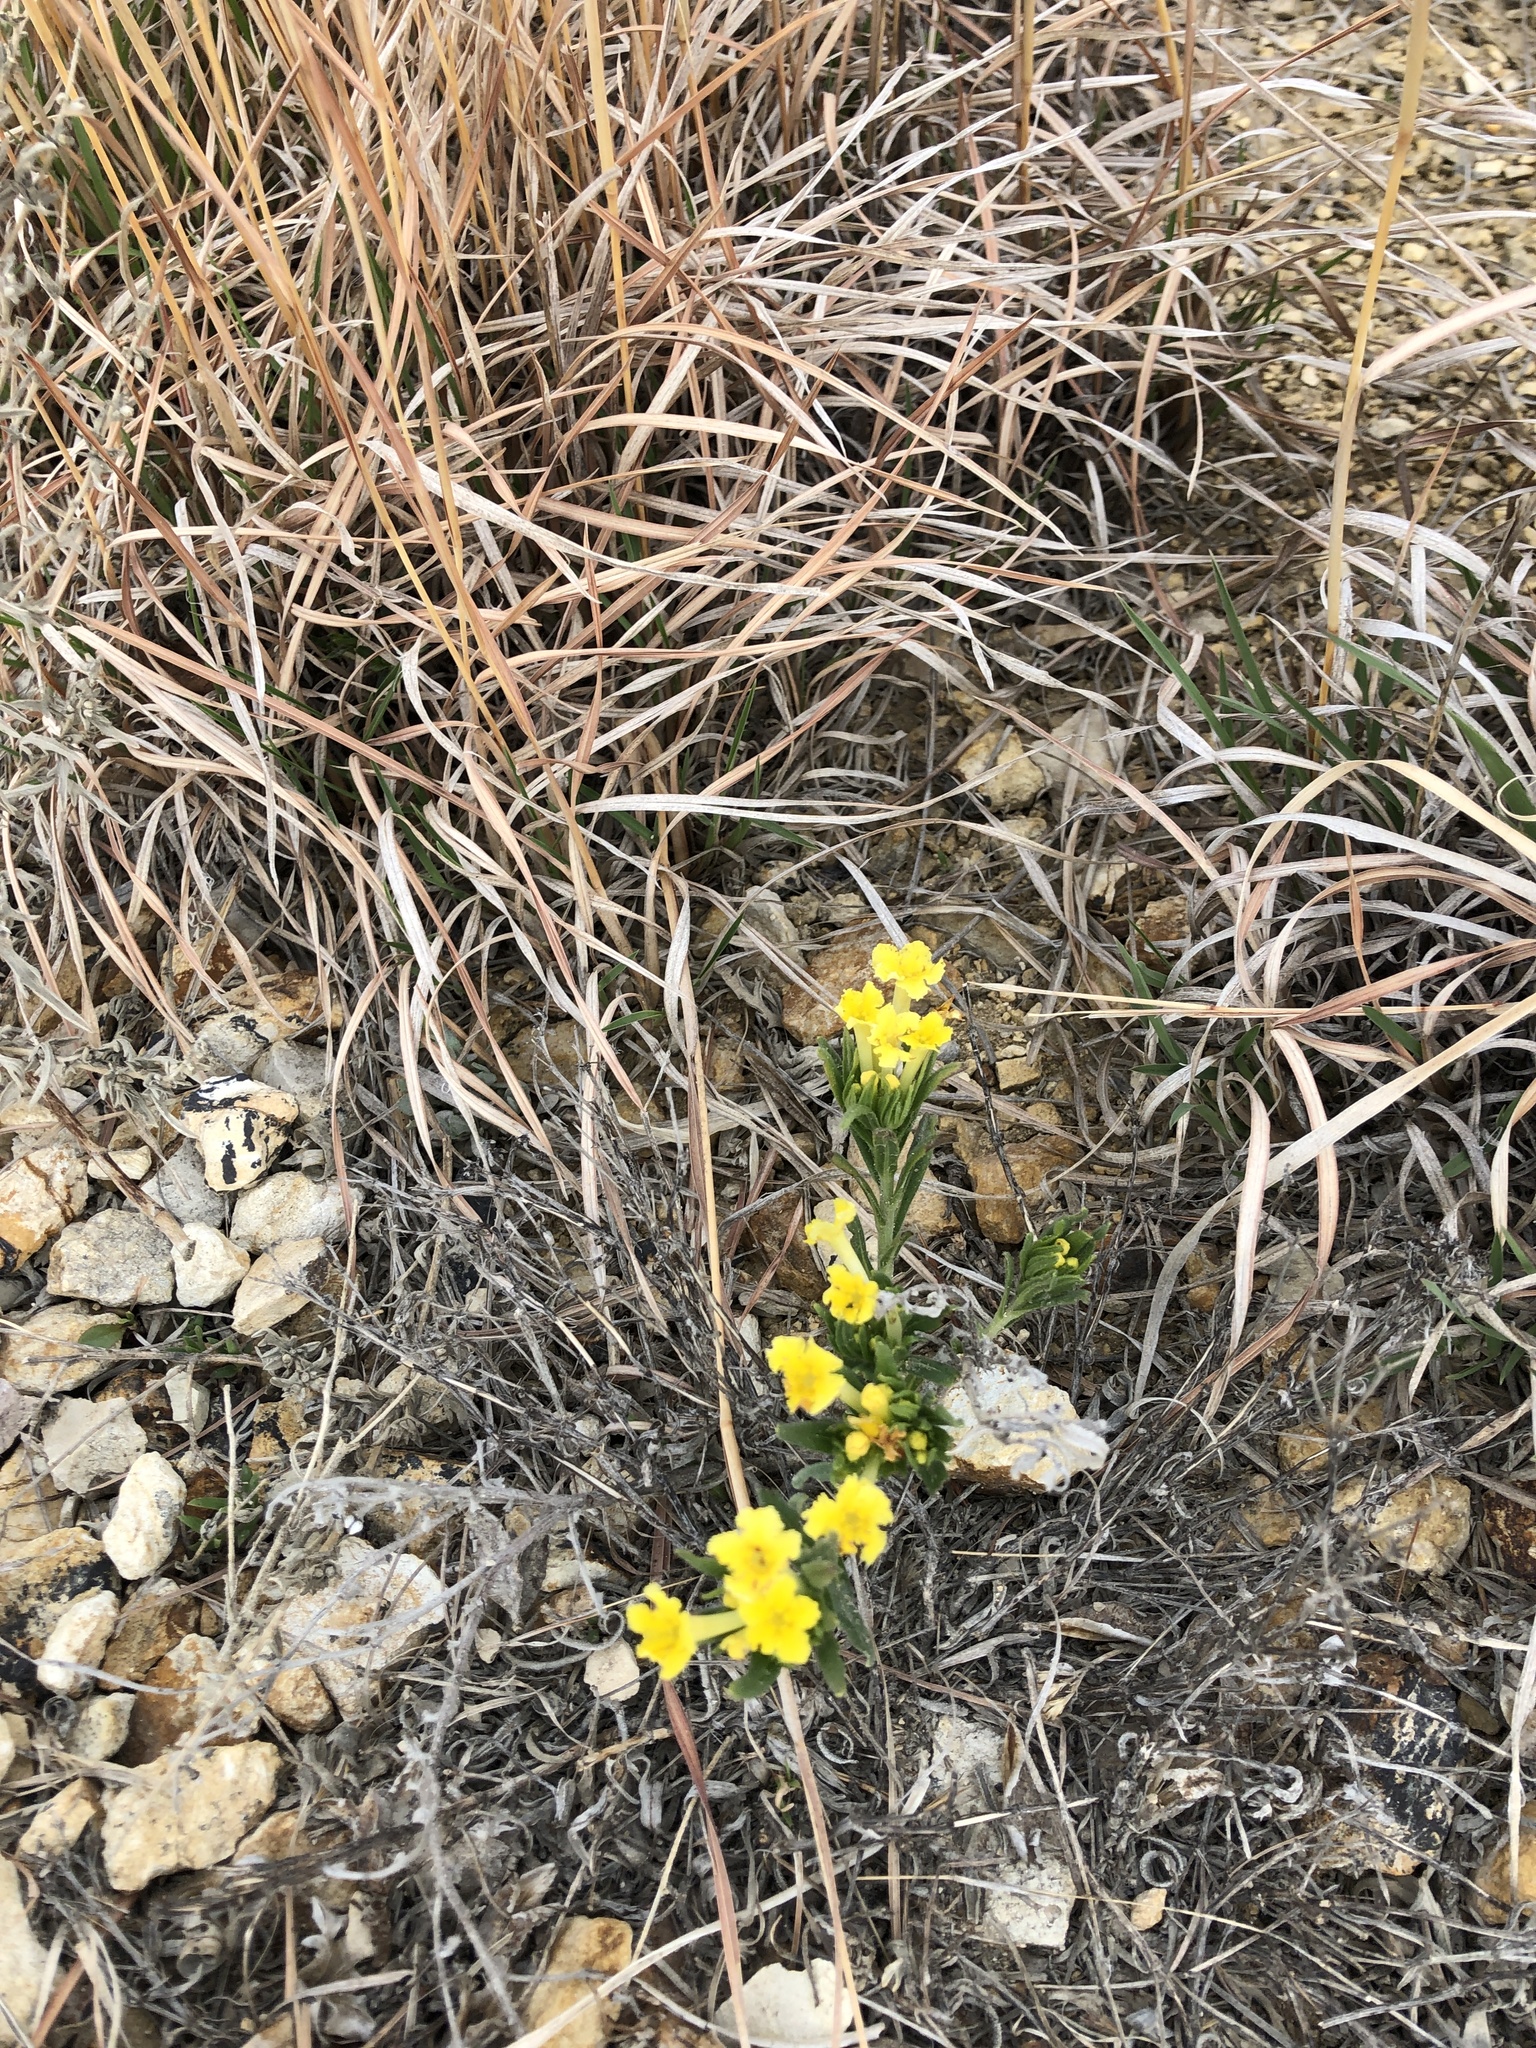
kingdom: Plantae
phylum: Tracheophyta
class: Magnoliopsida
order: Boraginales
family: Boraginaceae
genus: Lithospermum
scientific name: Lithospermum incisum
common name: Fringed gromwell
